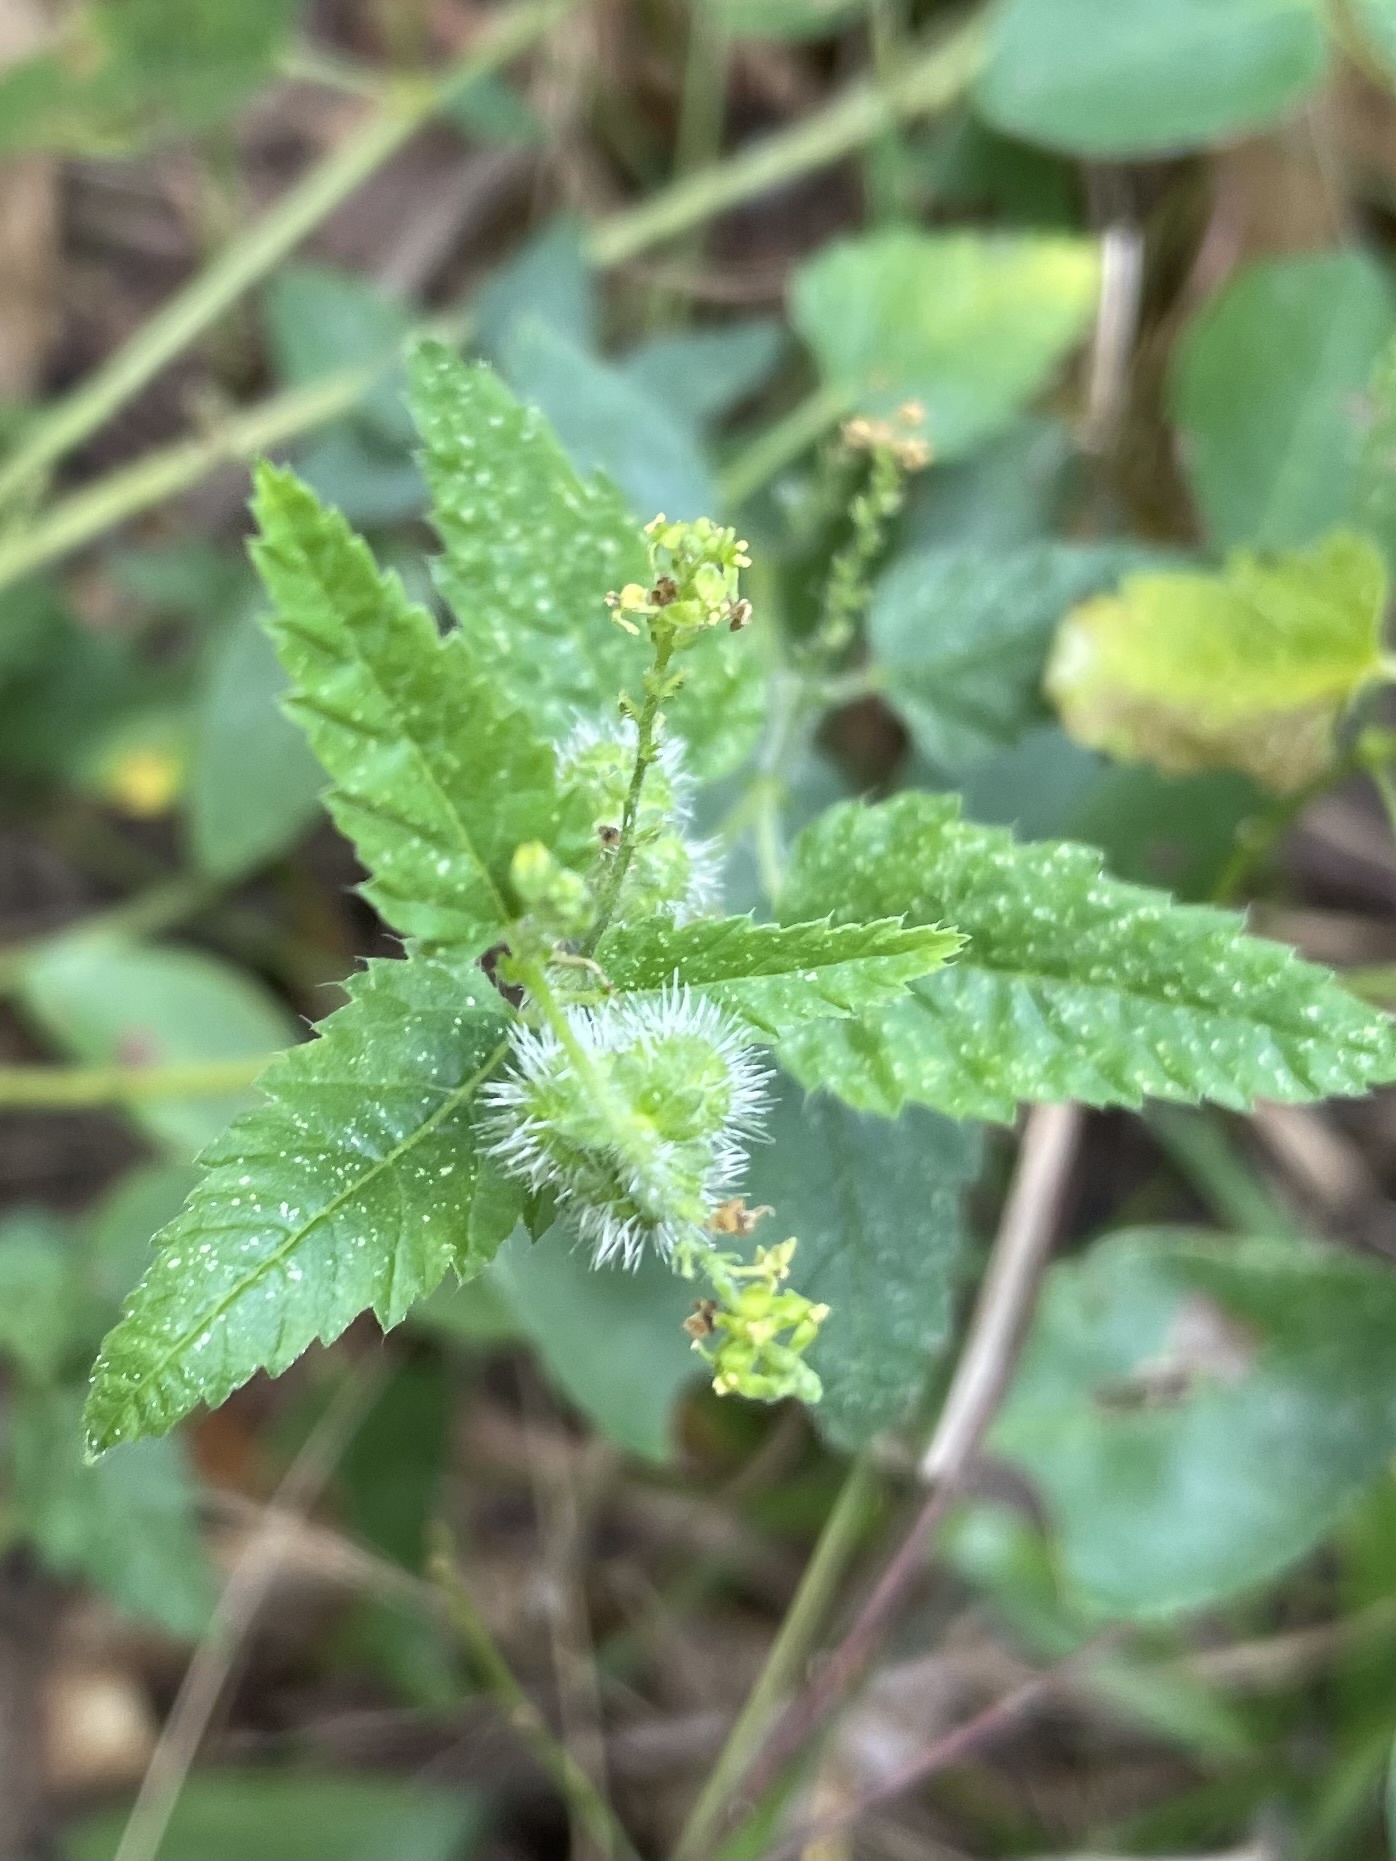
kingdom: Plantae
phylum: Tracheophyta
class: Magnoliopsida
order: Malpighiales
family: Euphorbiaceae
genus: Tragia
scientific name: Tragia urticifolia
